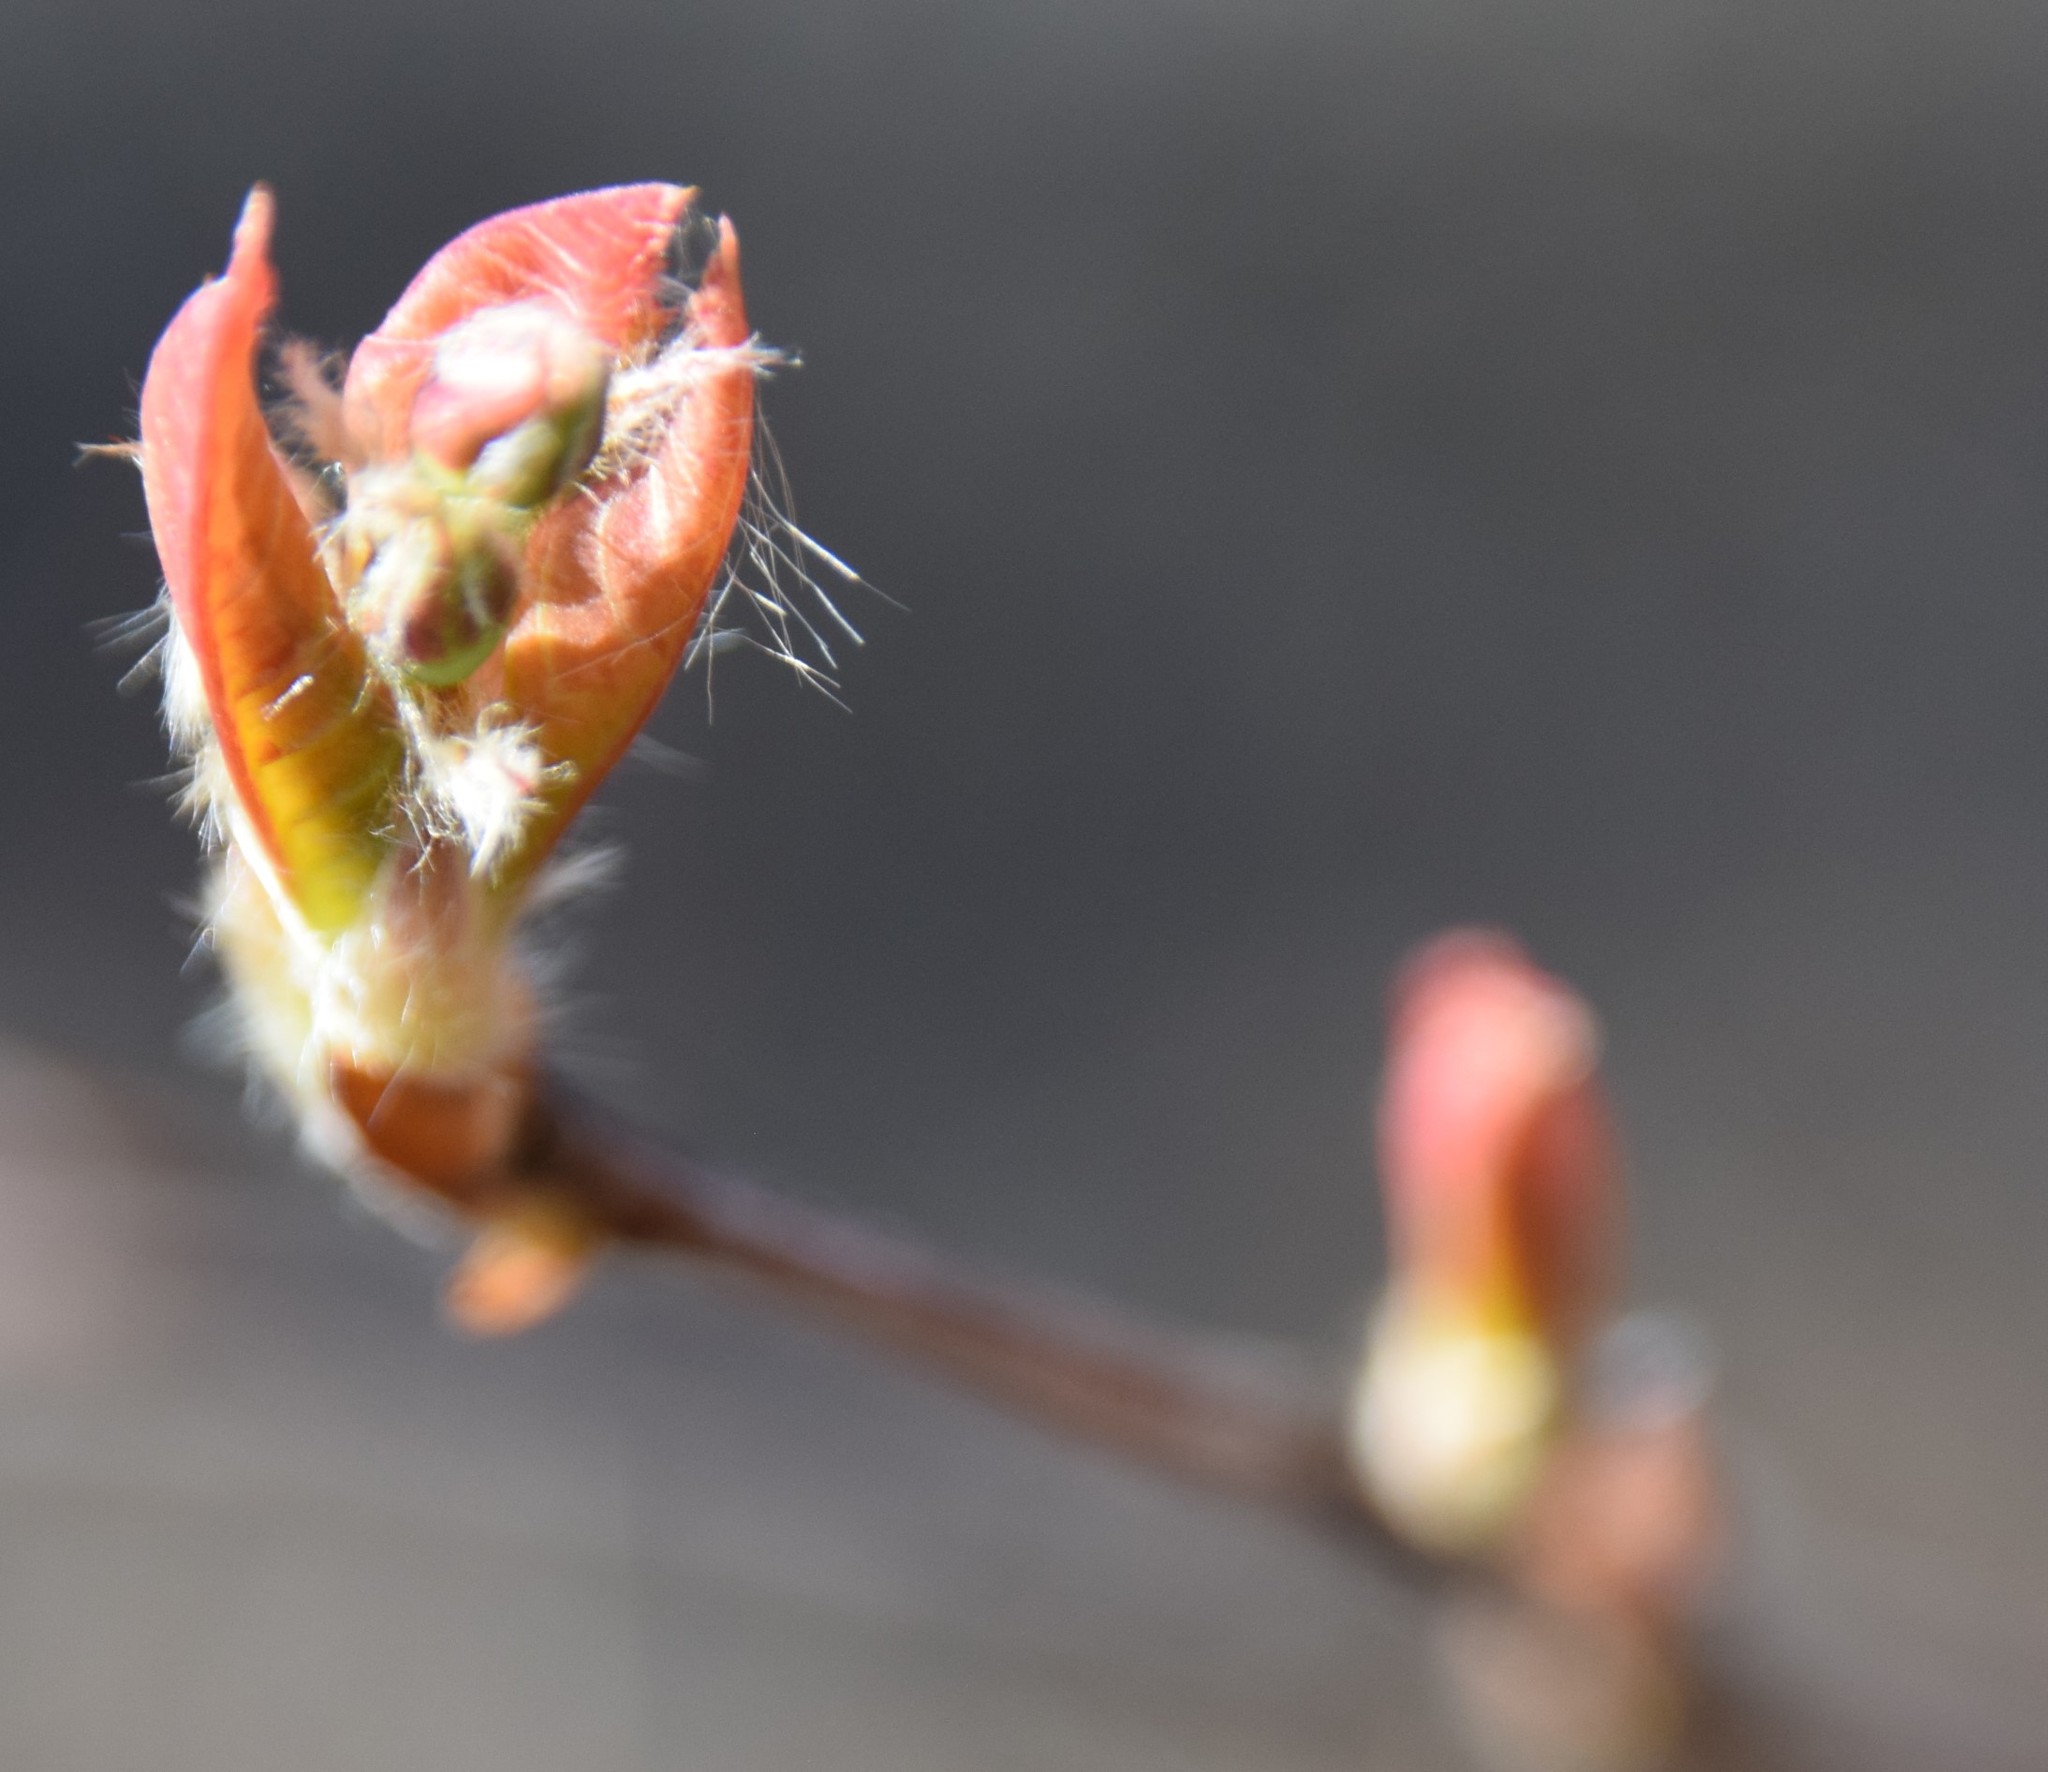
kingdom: Plantae
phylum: Tracheophyta
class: Magnoliopsida
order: Rosales
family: Rosaceae
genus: Amelanchier
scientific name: Amelanchier
